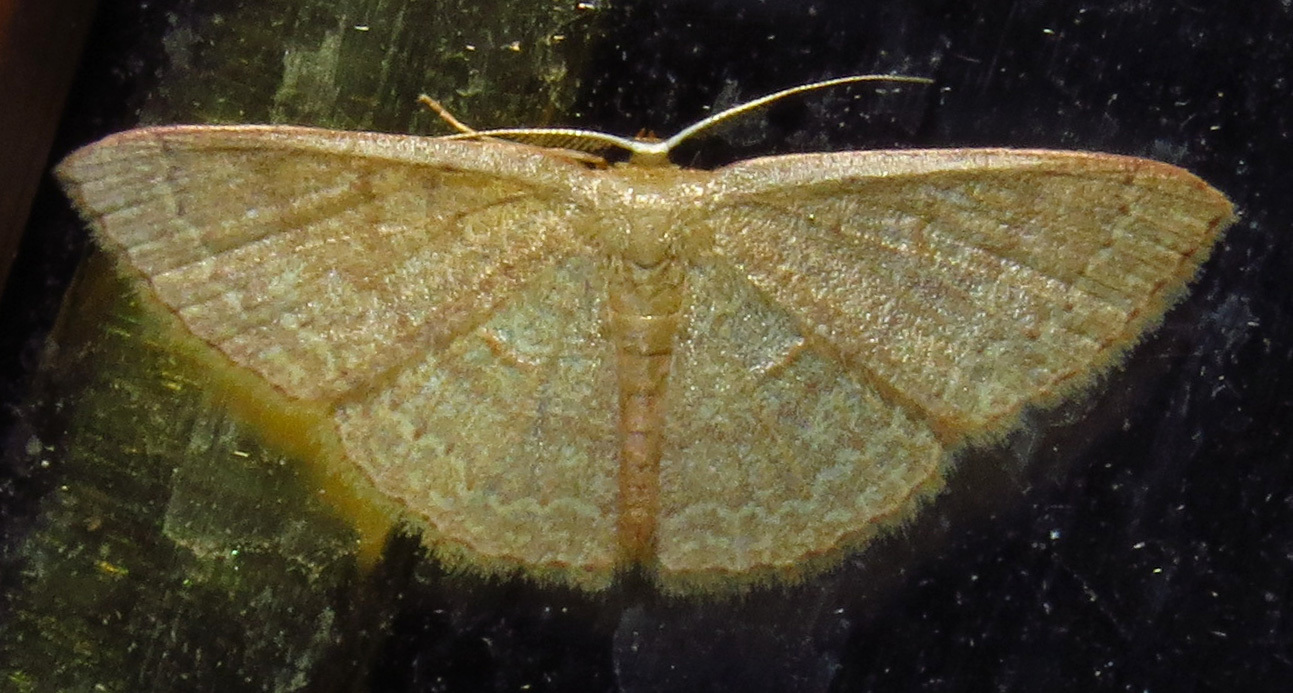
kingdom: Animalia
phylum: Arthropoda
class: Insecta
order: Lepidoptera
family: Geometridae
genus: Pleuroprucha
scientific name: Pleuroprucha insulsaria
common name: Common tan wave
